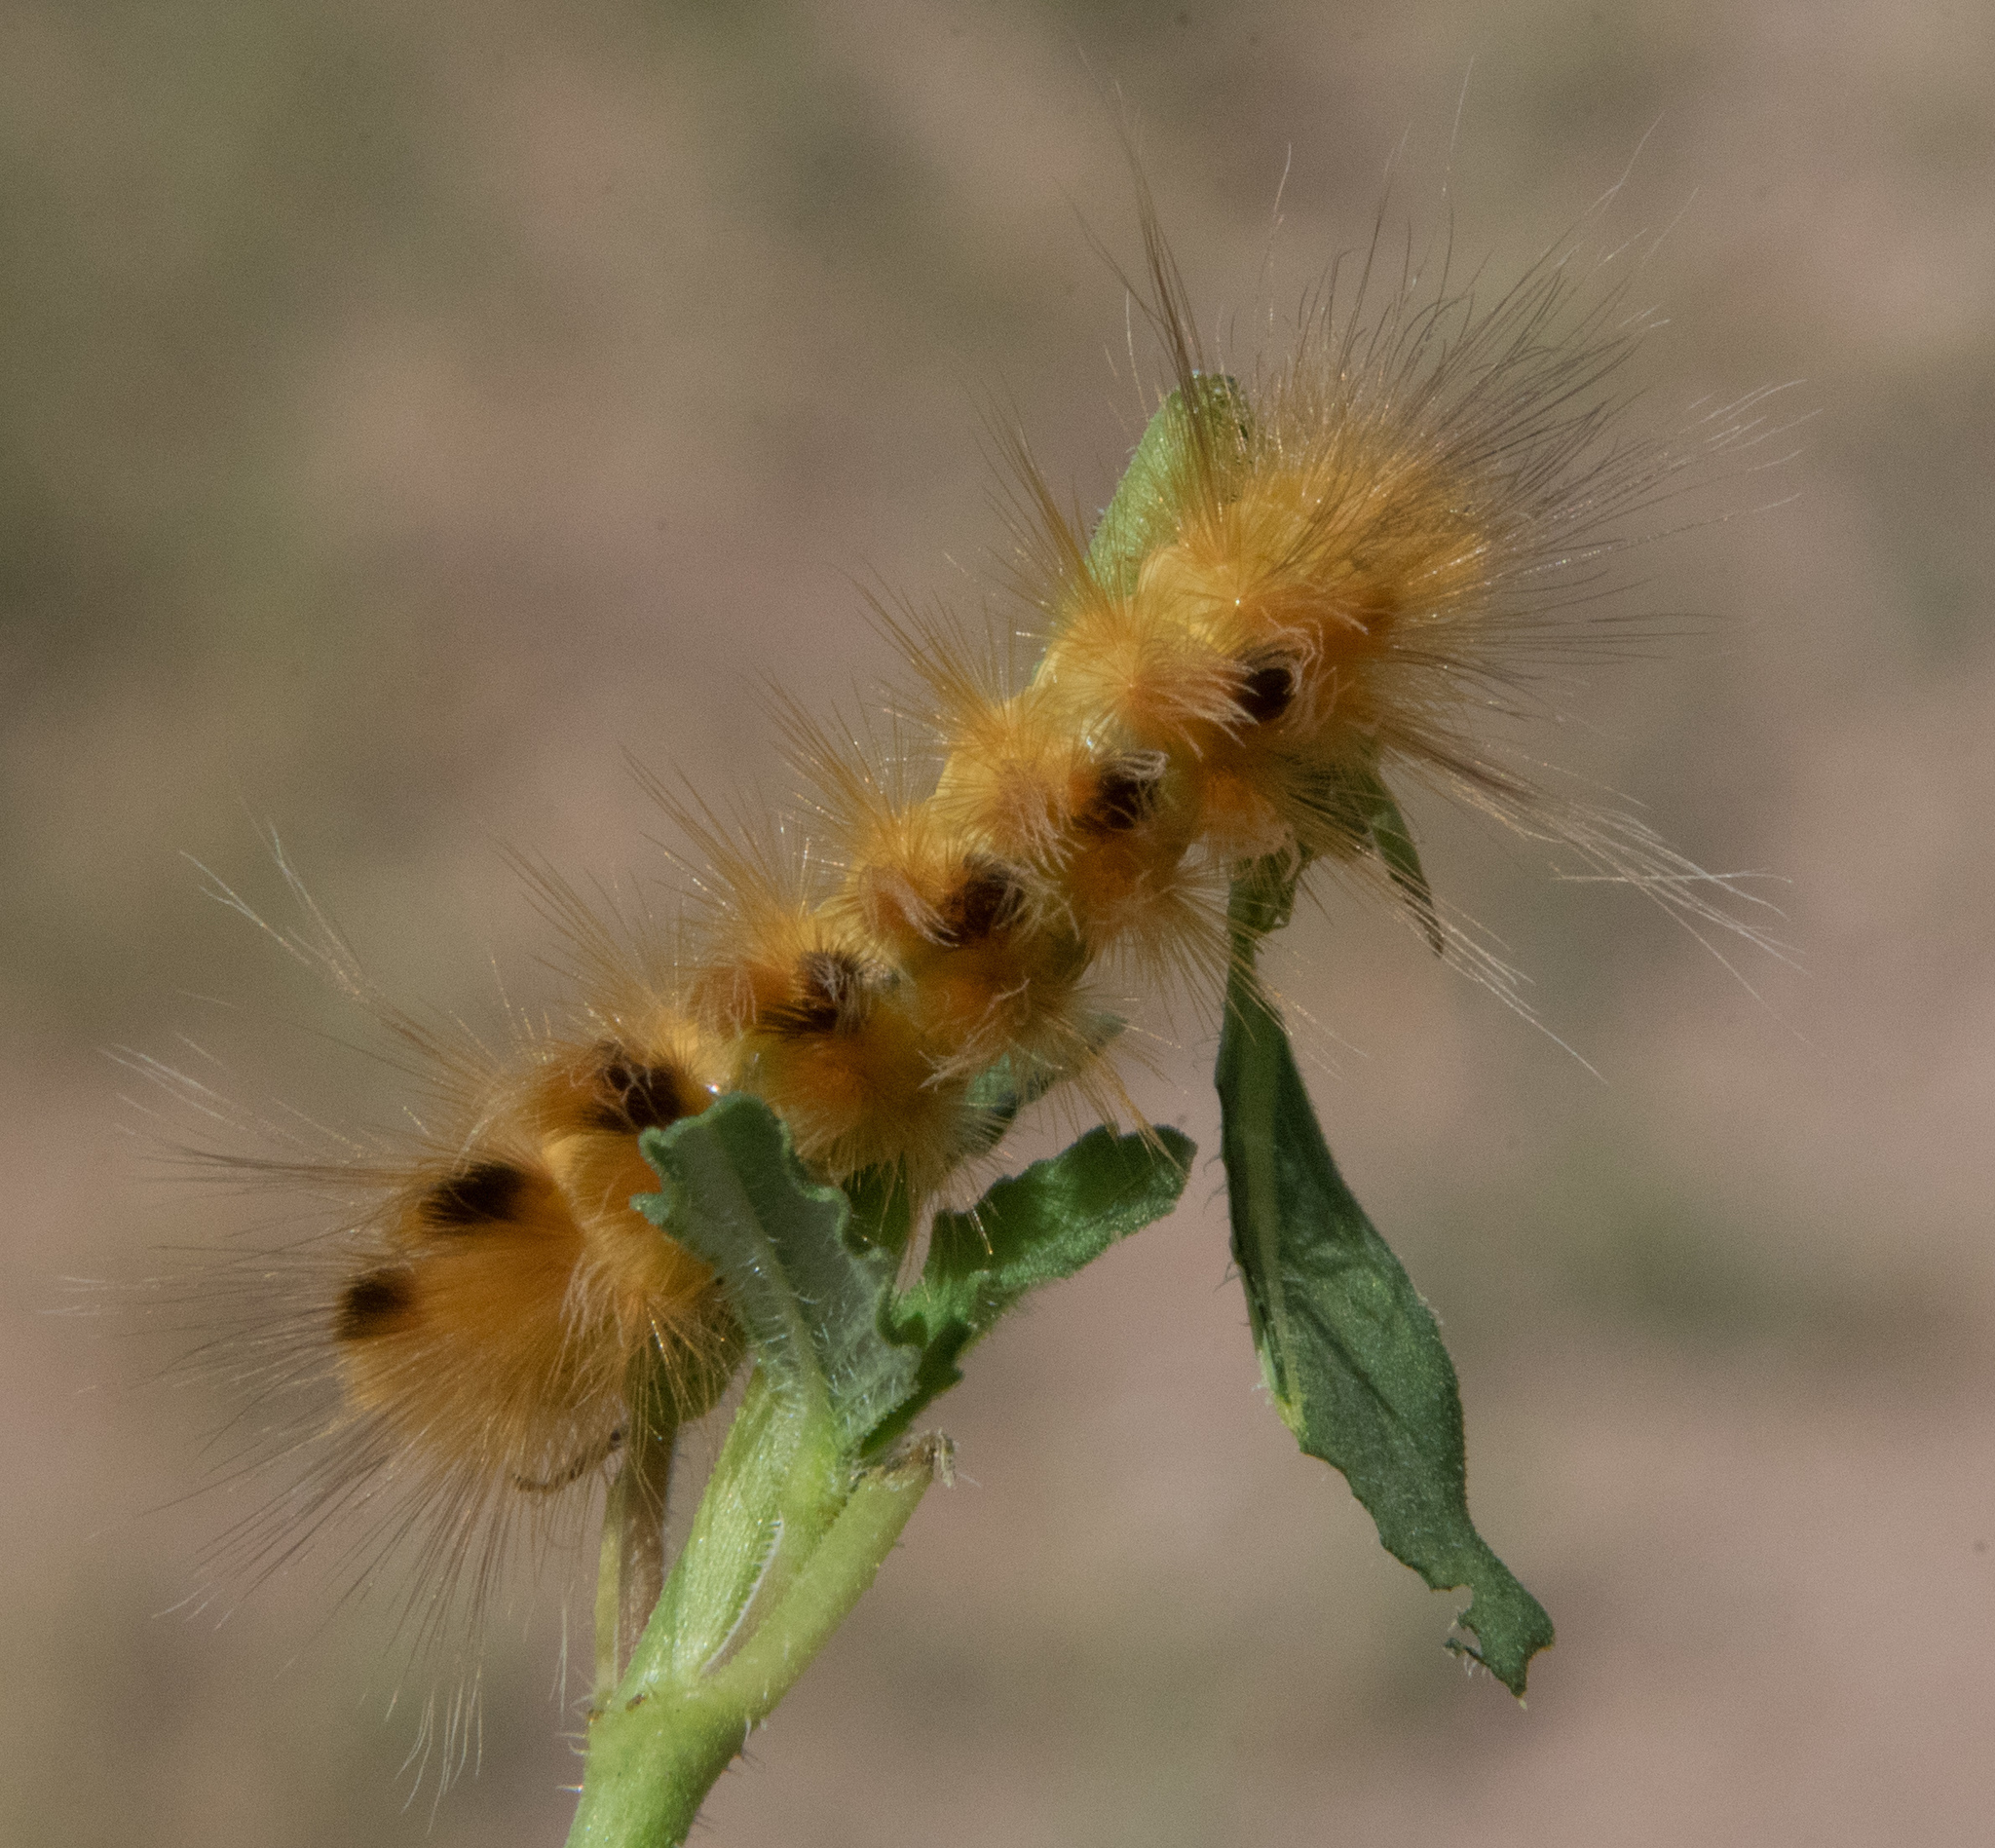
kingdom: Animalia
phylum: Arthropoda
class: Insecta
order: Lepidoptera
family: Erebidae
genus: Pygarctia
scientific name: Pygarctia roseicapitis
